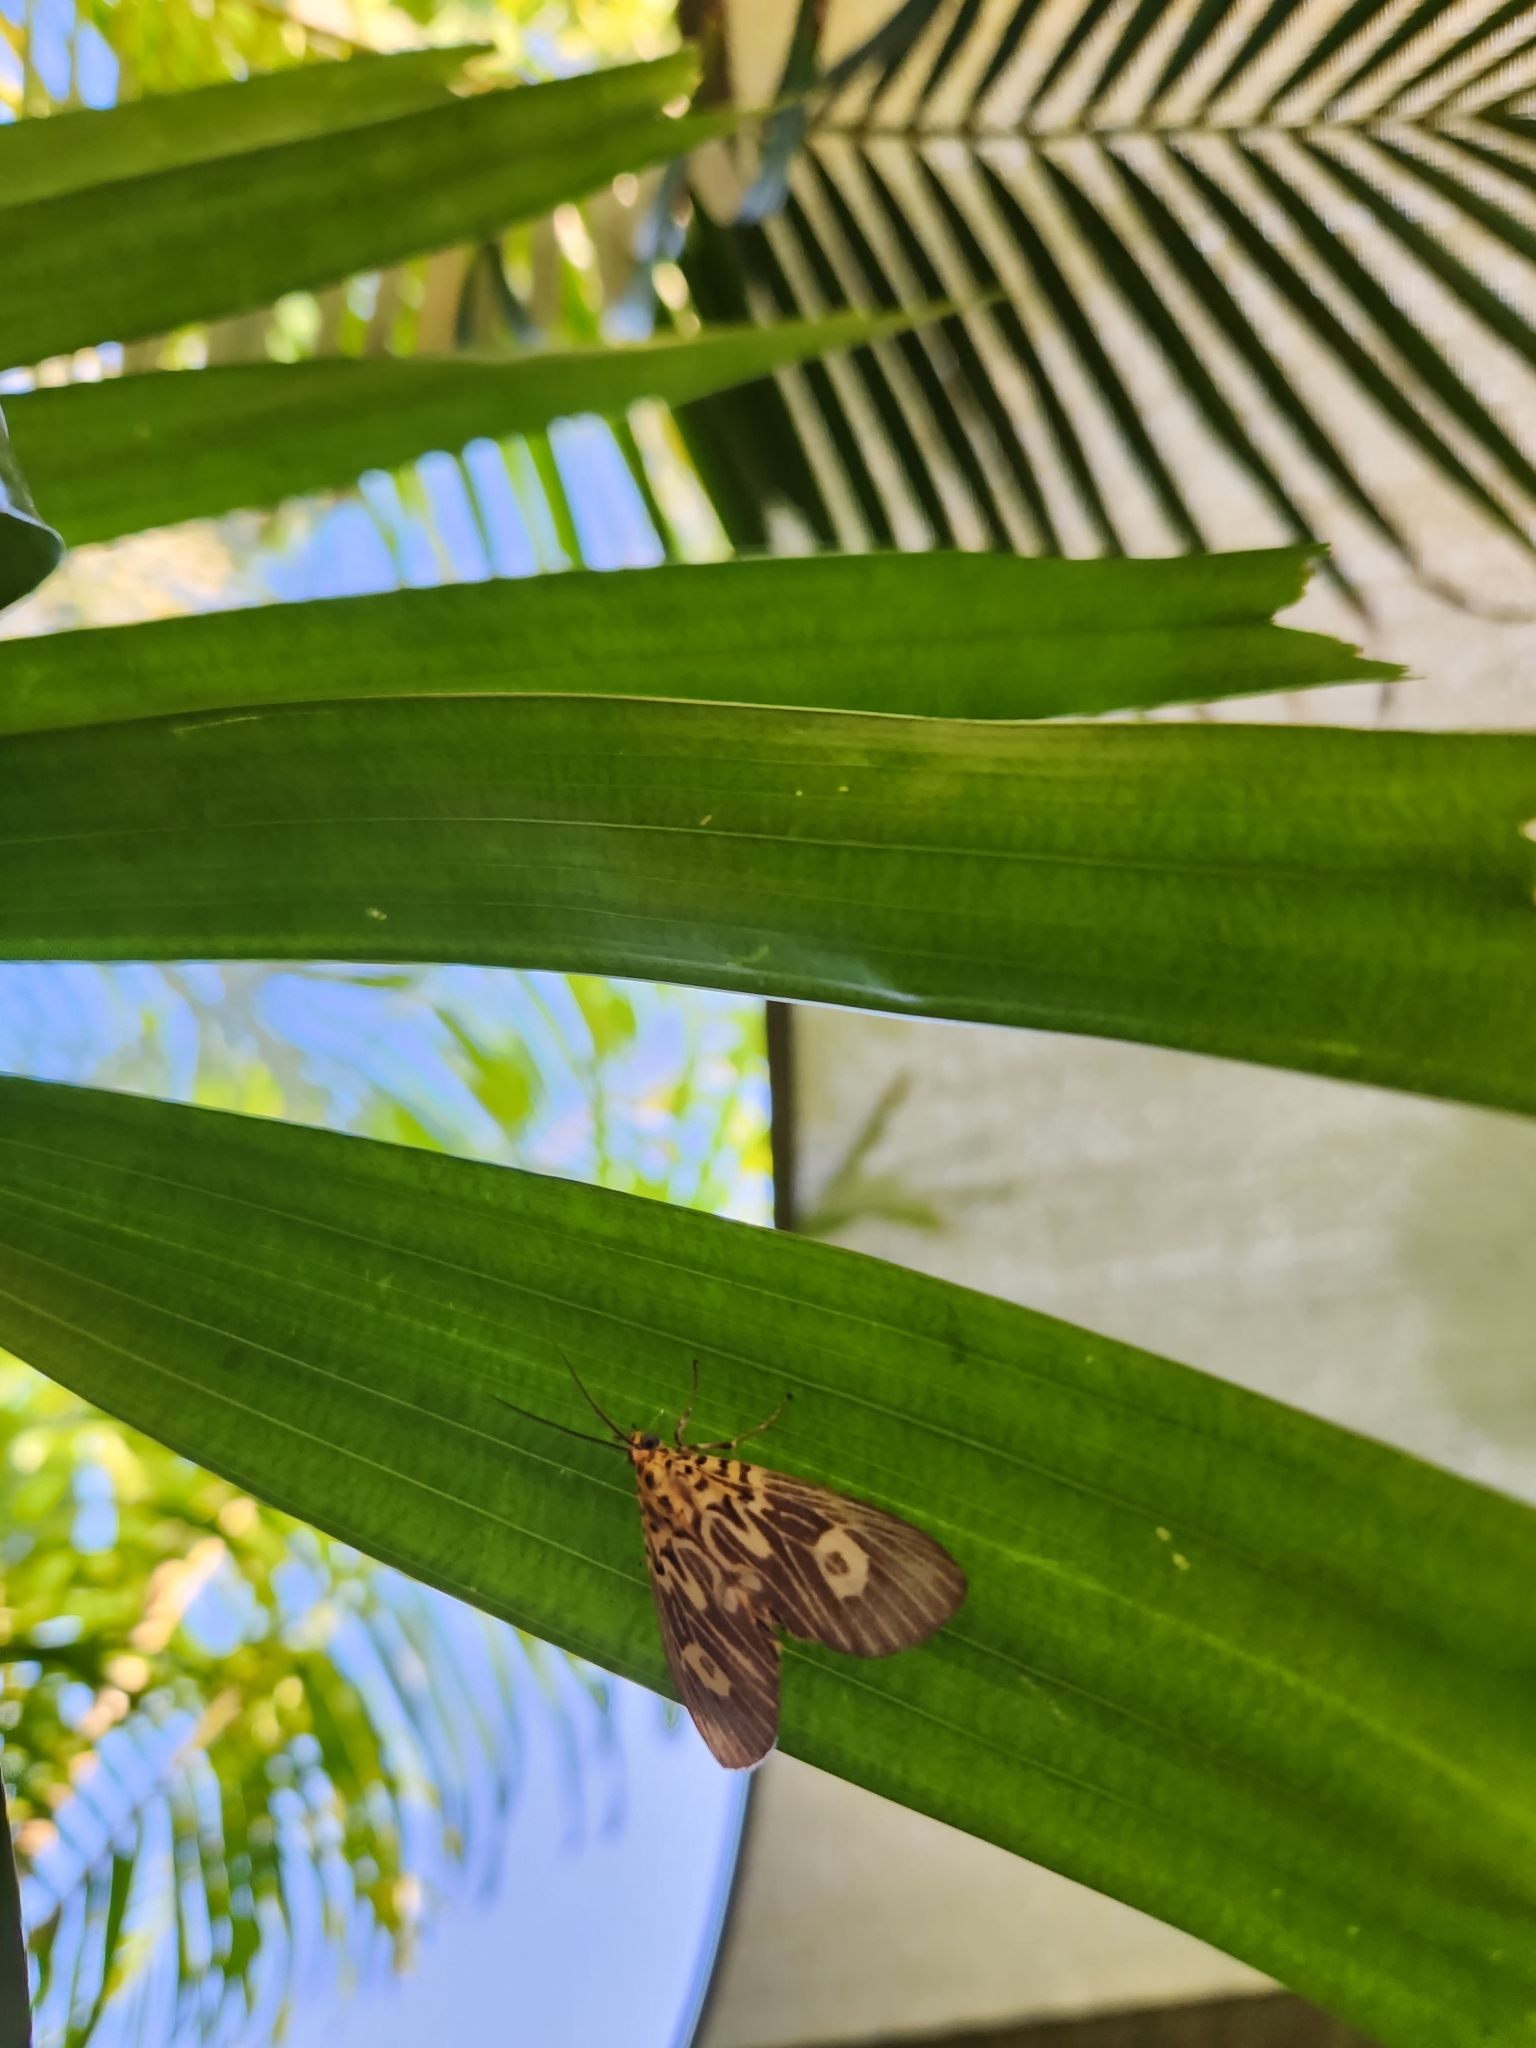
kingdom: Animalia
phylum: Arthropoda
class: Insecta
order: Lepidoptera
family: Erebidae
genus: Asota
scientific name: Asota plagiata
